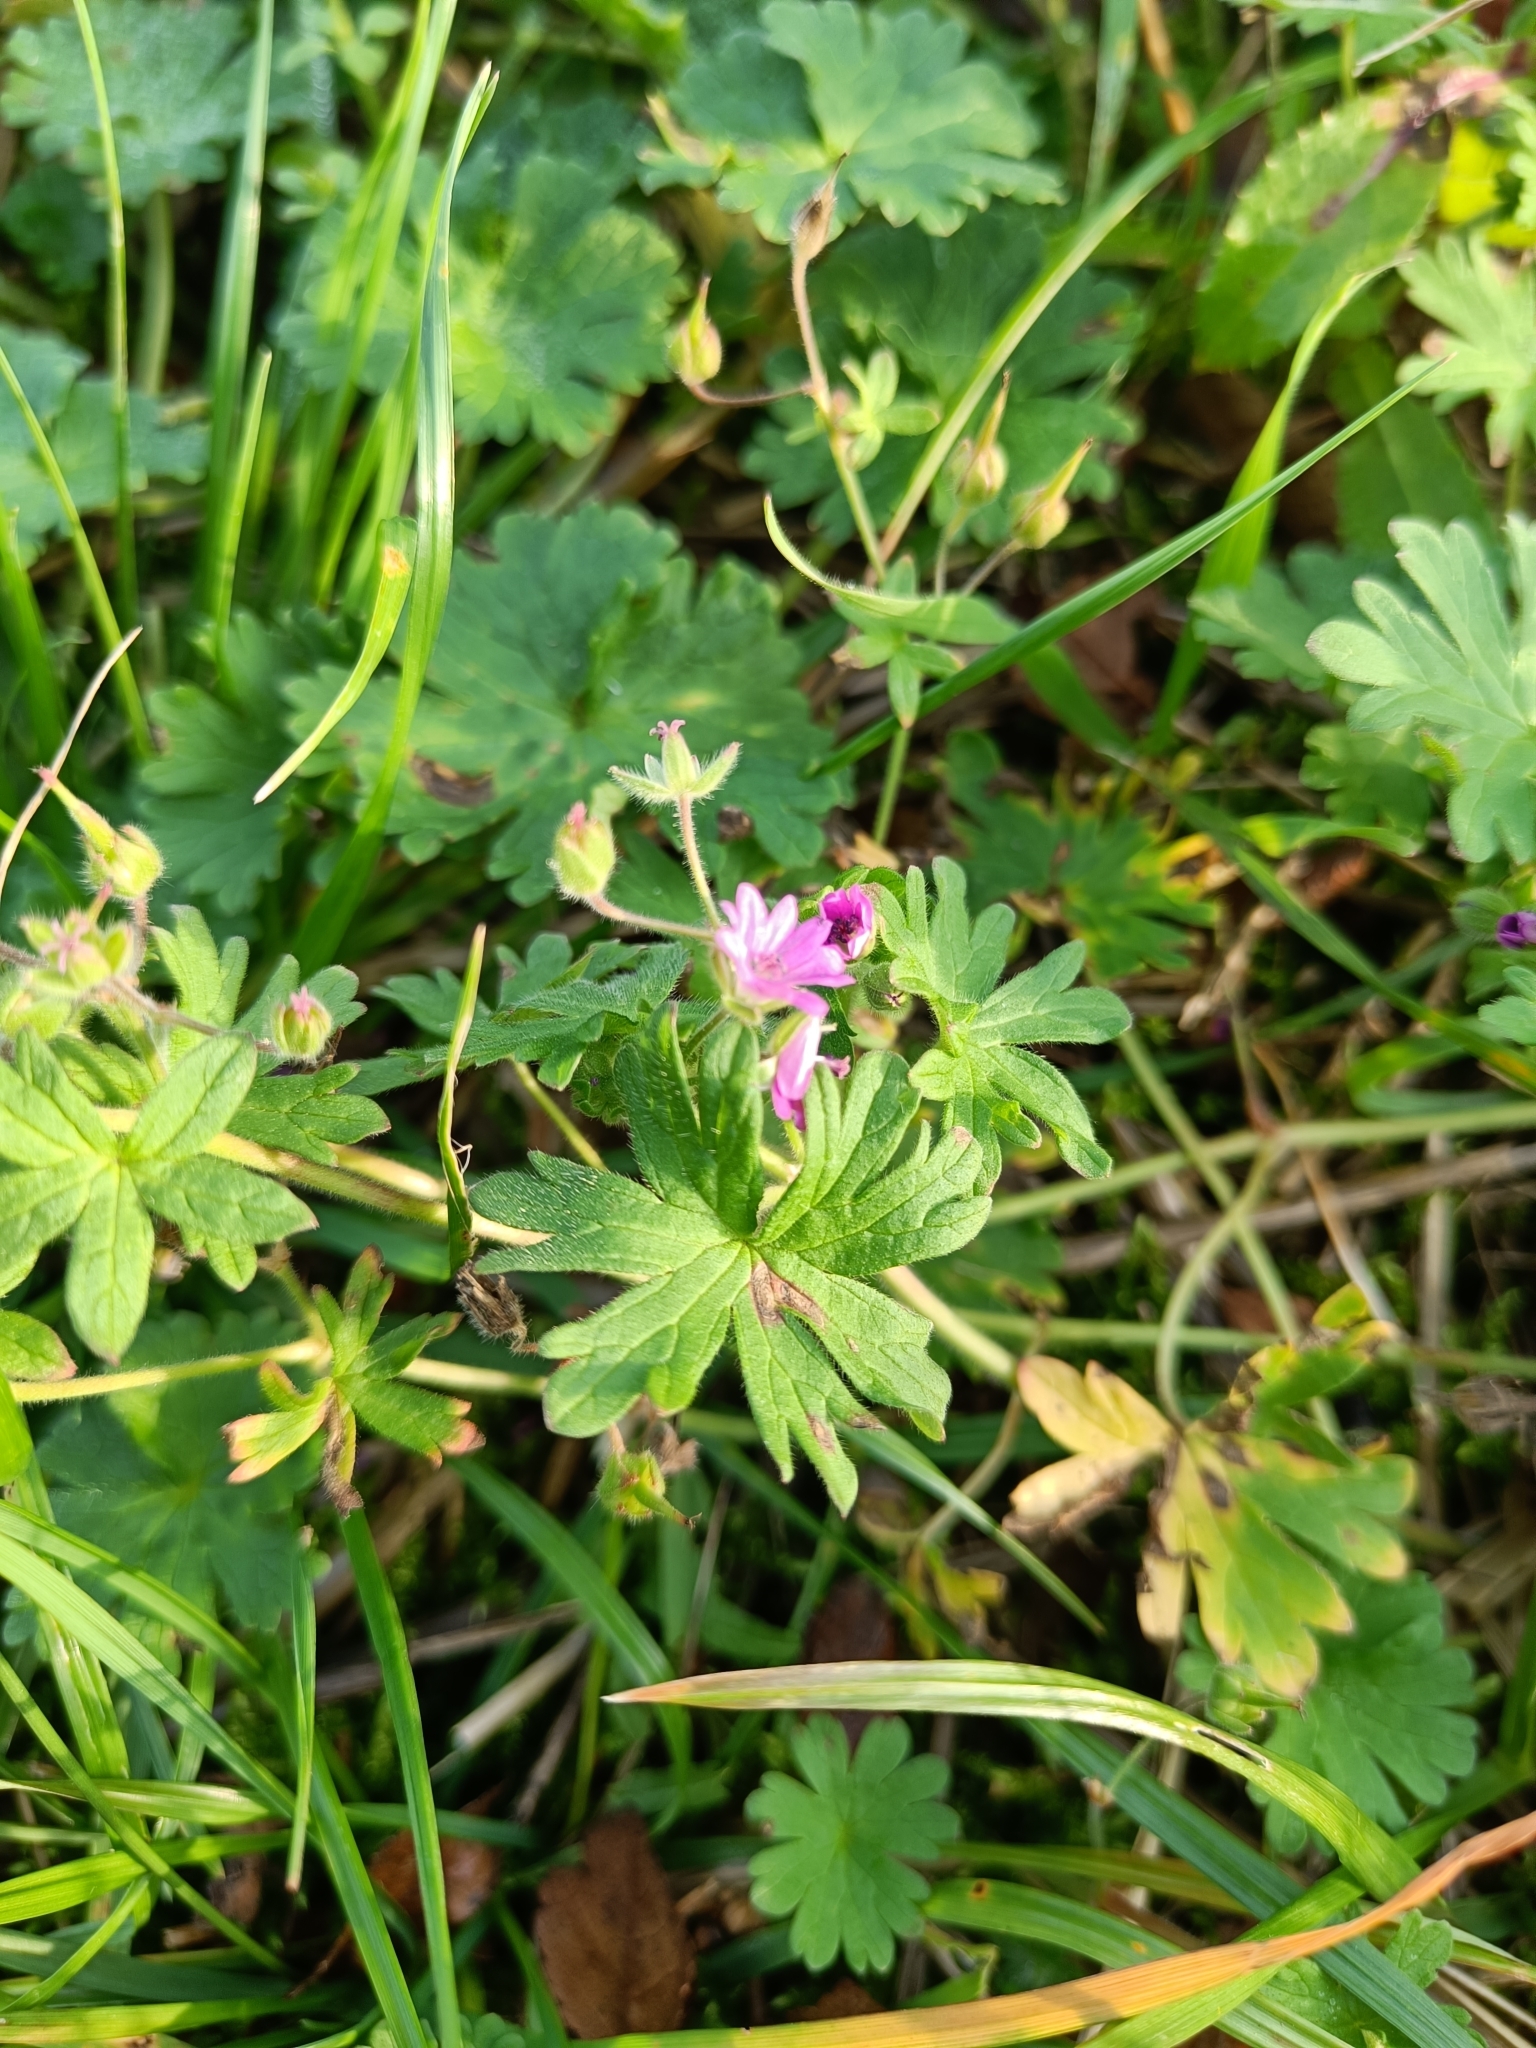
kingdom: Plantae
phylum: Tracheophyta
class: Magnoliopsida
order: Geraniales
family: Geraniaceae
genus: Geranium
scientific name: Geranium molle
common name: Dove's-foot crane's-bill
